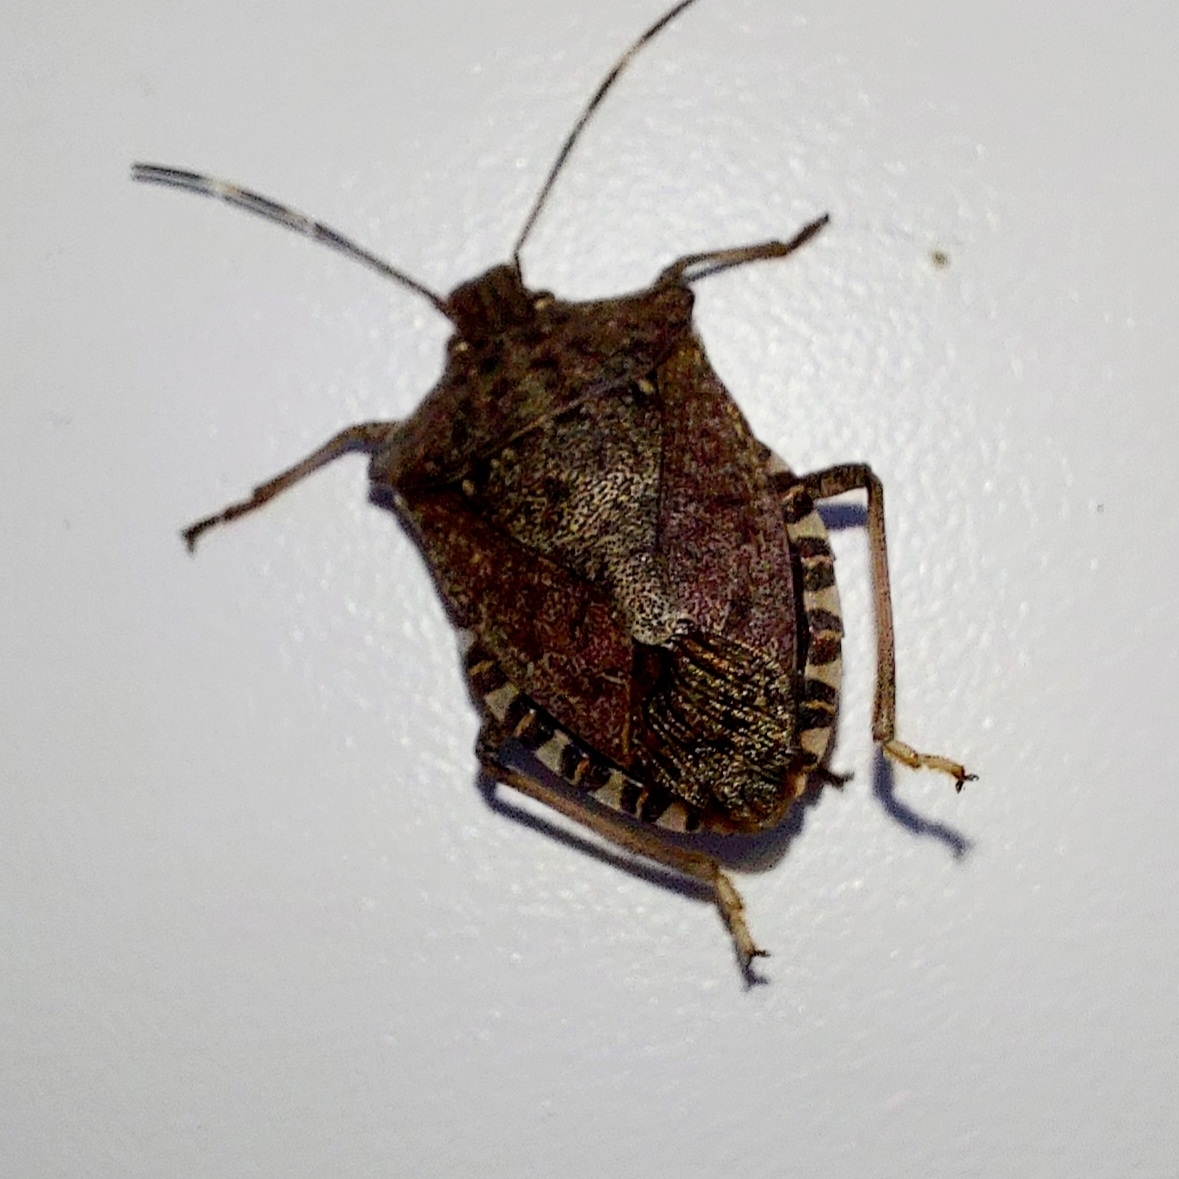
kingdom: Animalia
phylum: Arthropoda
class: Insecta
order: Hemiptera
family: Pentatomidae
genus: Halyomorpha
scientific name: Halyomorpha halys
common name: Brown marmorated stink bug
